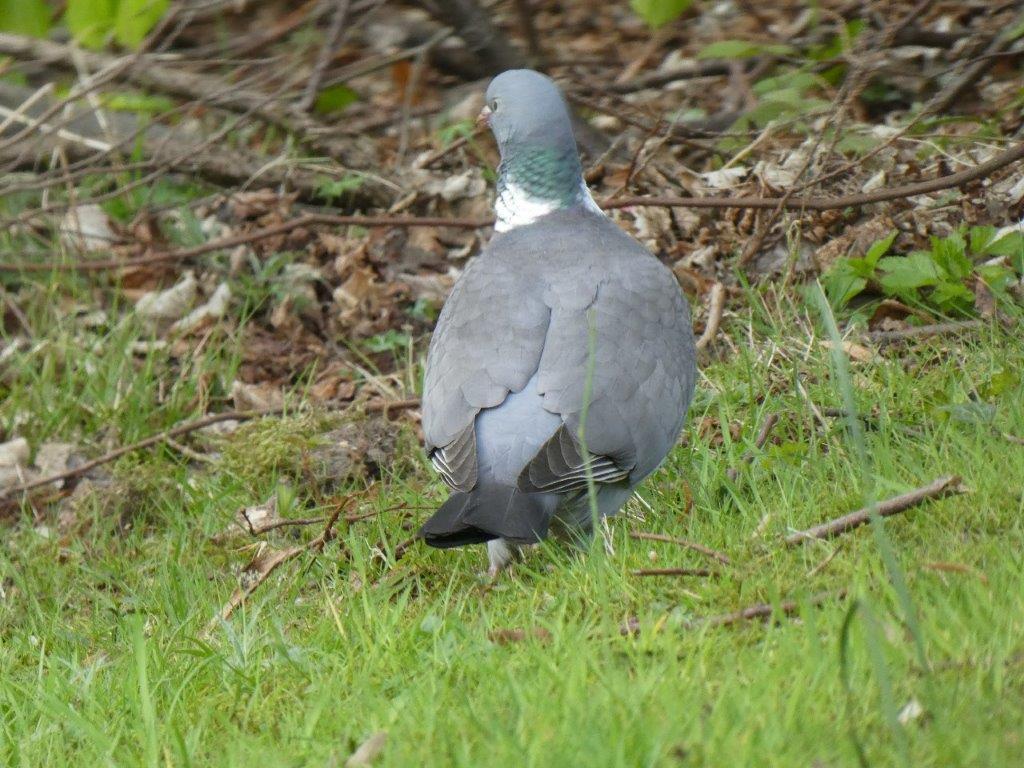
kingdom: Animalia
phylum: Chordata
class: Aves
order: Columbiformes
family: Columbidae
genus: Columba
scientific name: Columba palumbus
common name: Common wood pigeon
